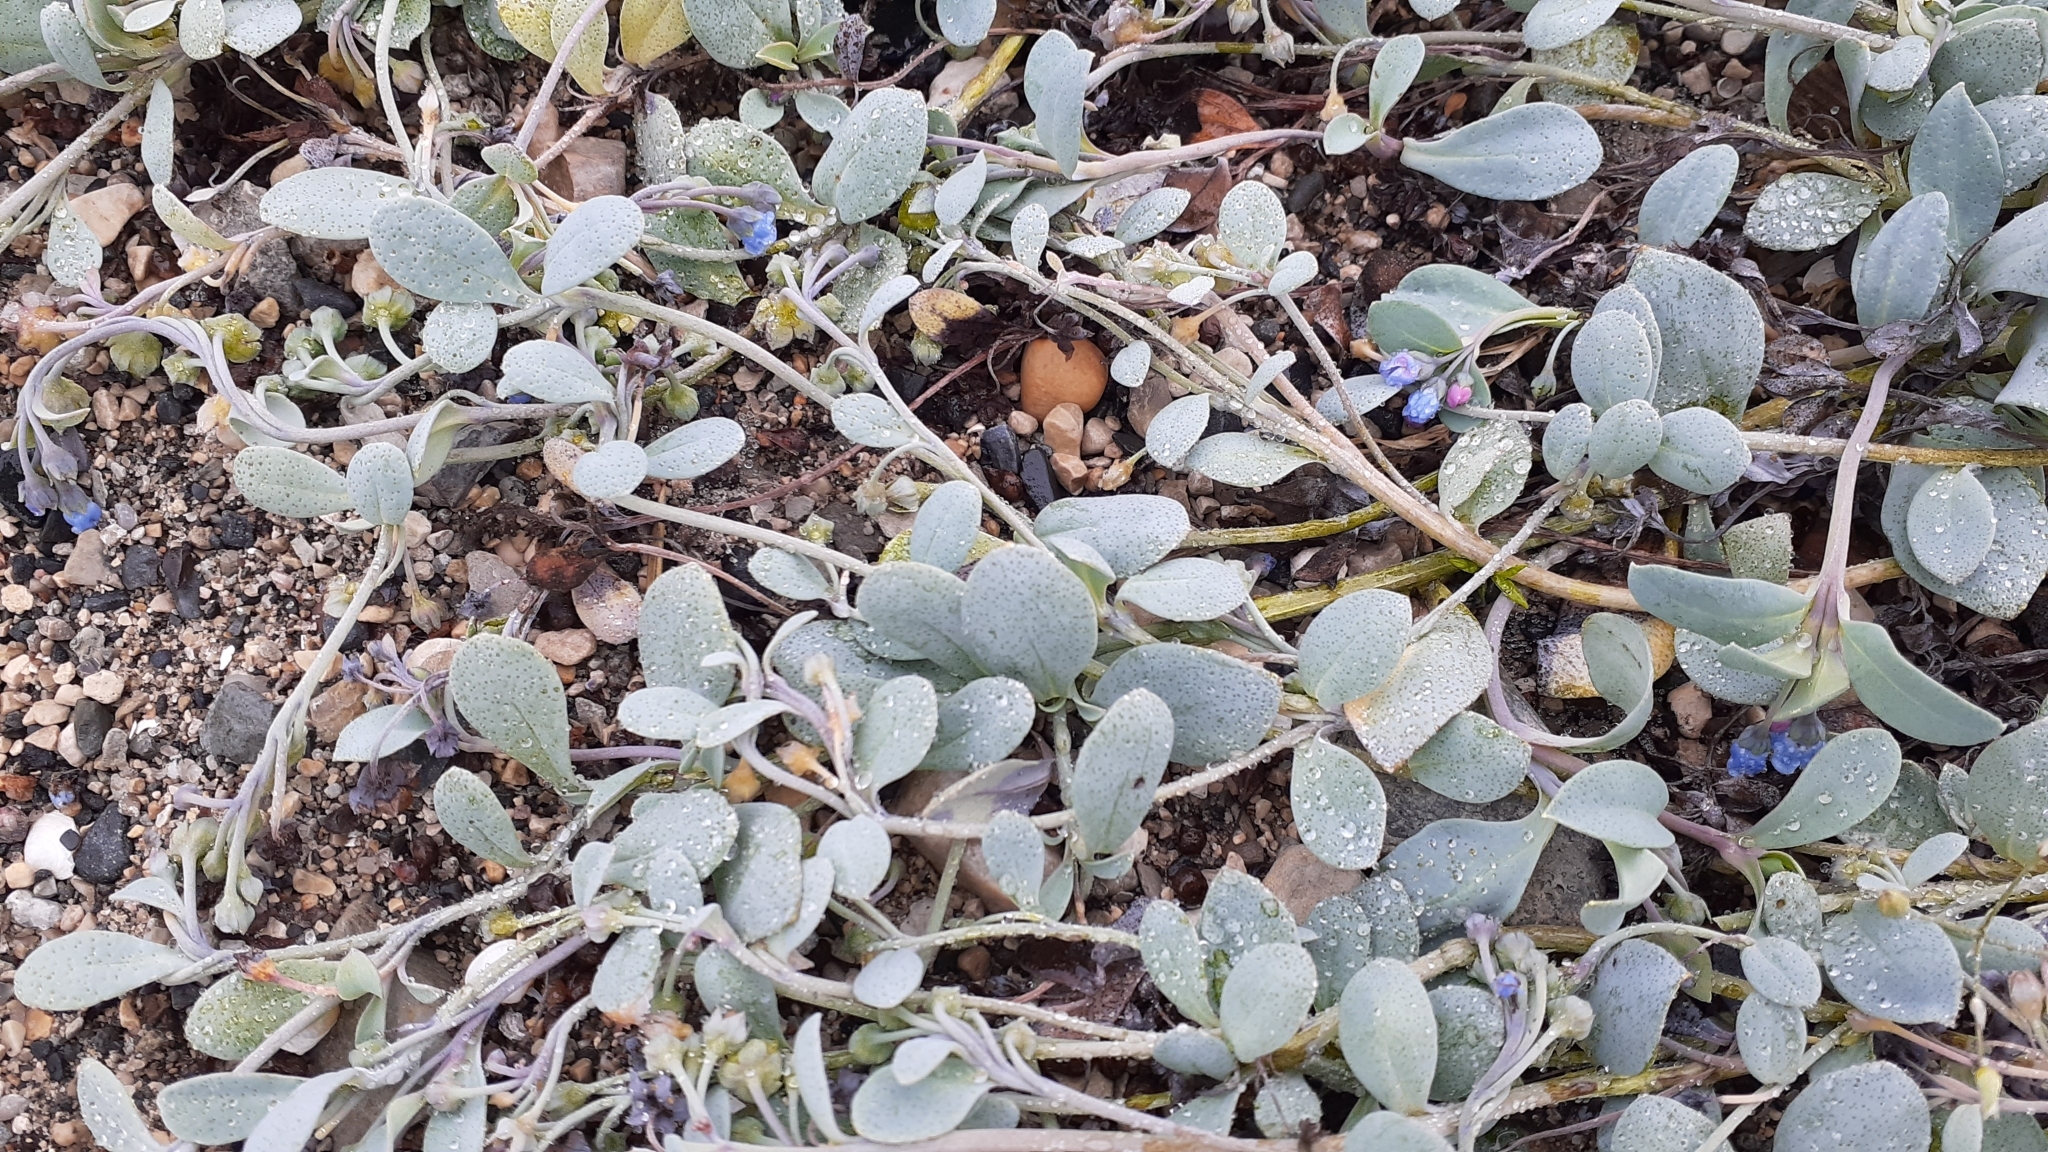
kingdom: Plantae
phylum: Tracheophyta
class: Magnoliopsida
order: Boraginales
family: Boraginaceae
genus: Mertensia
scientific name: Mertensia maritima
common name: Oysterplant
